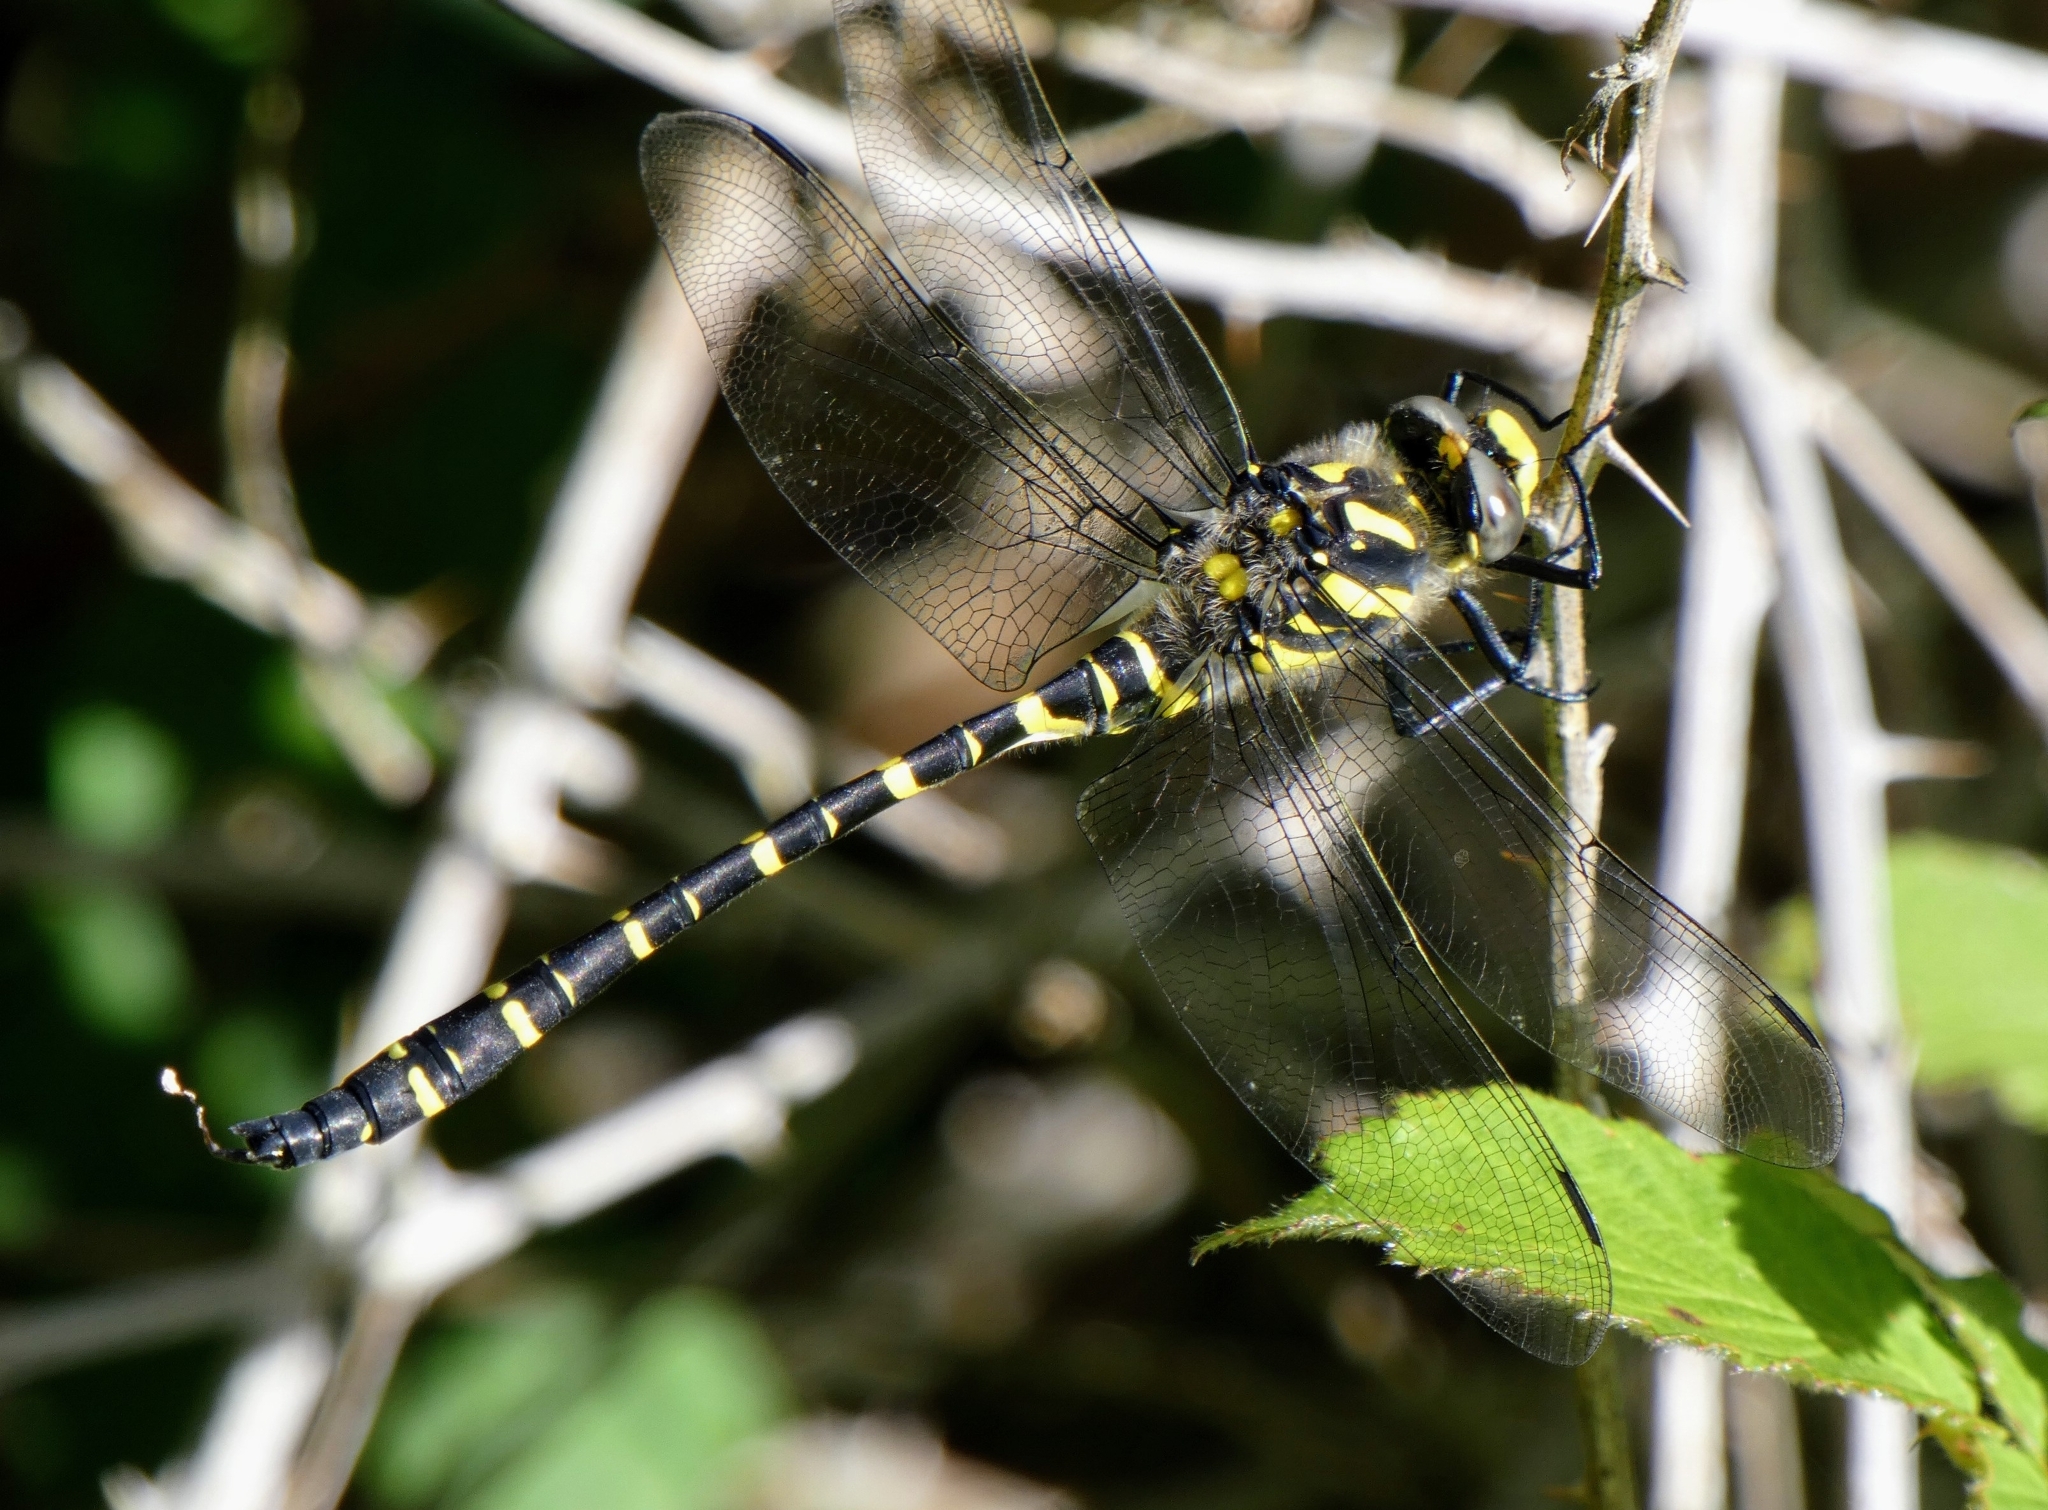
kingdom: Animalia
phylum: Arthropoda
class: Insecta
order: Odonata
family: Cordulegastridae
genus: Cordulegaster
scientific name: Cordulegaster boltonii
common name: Golden-ringed dragonfly
